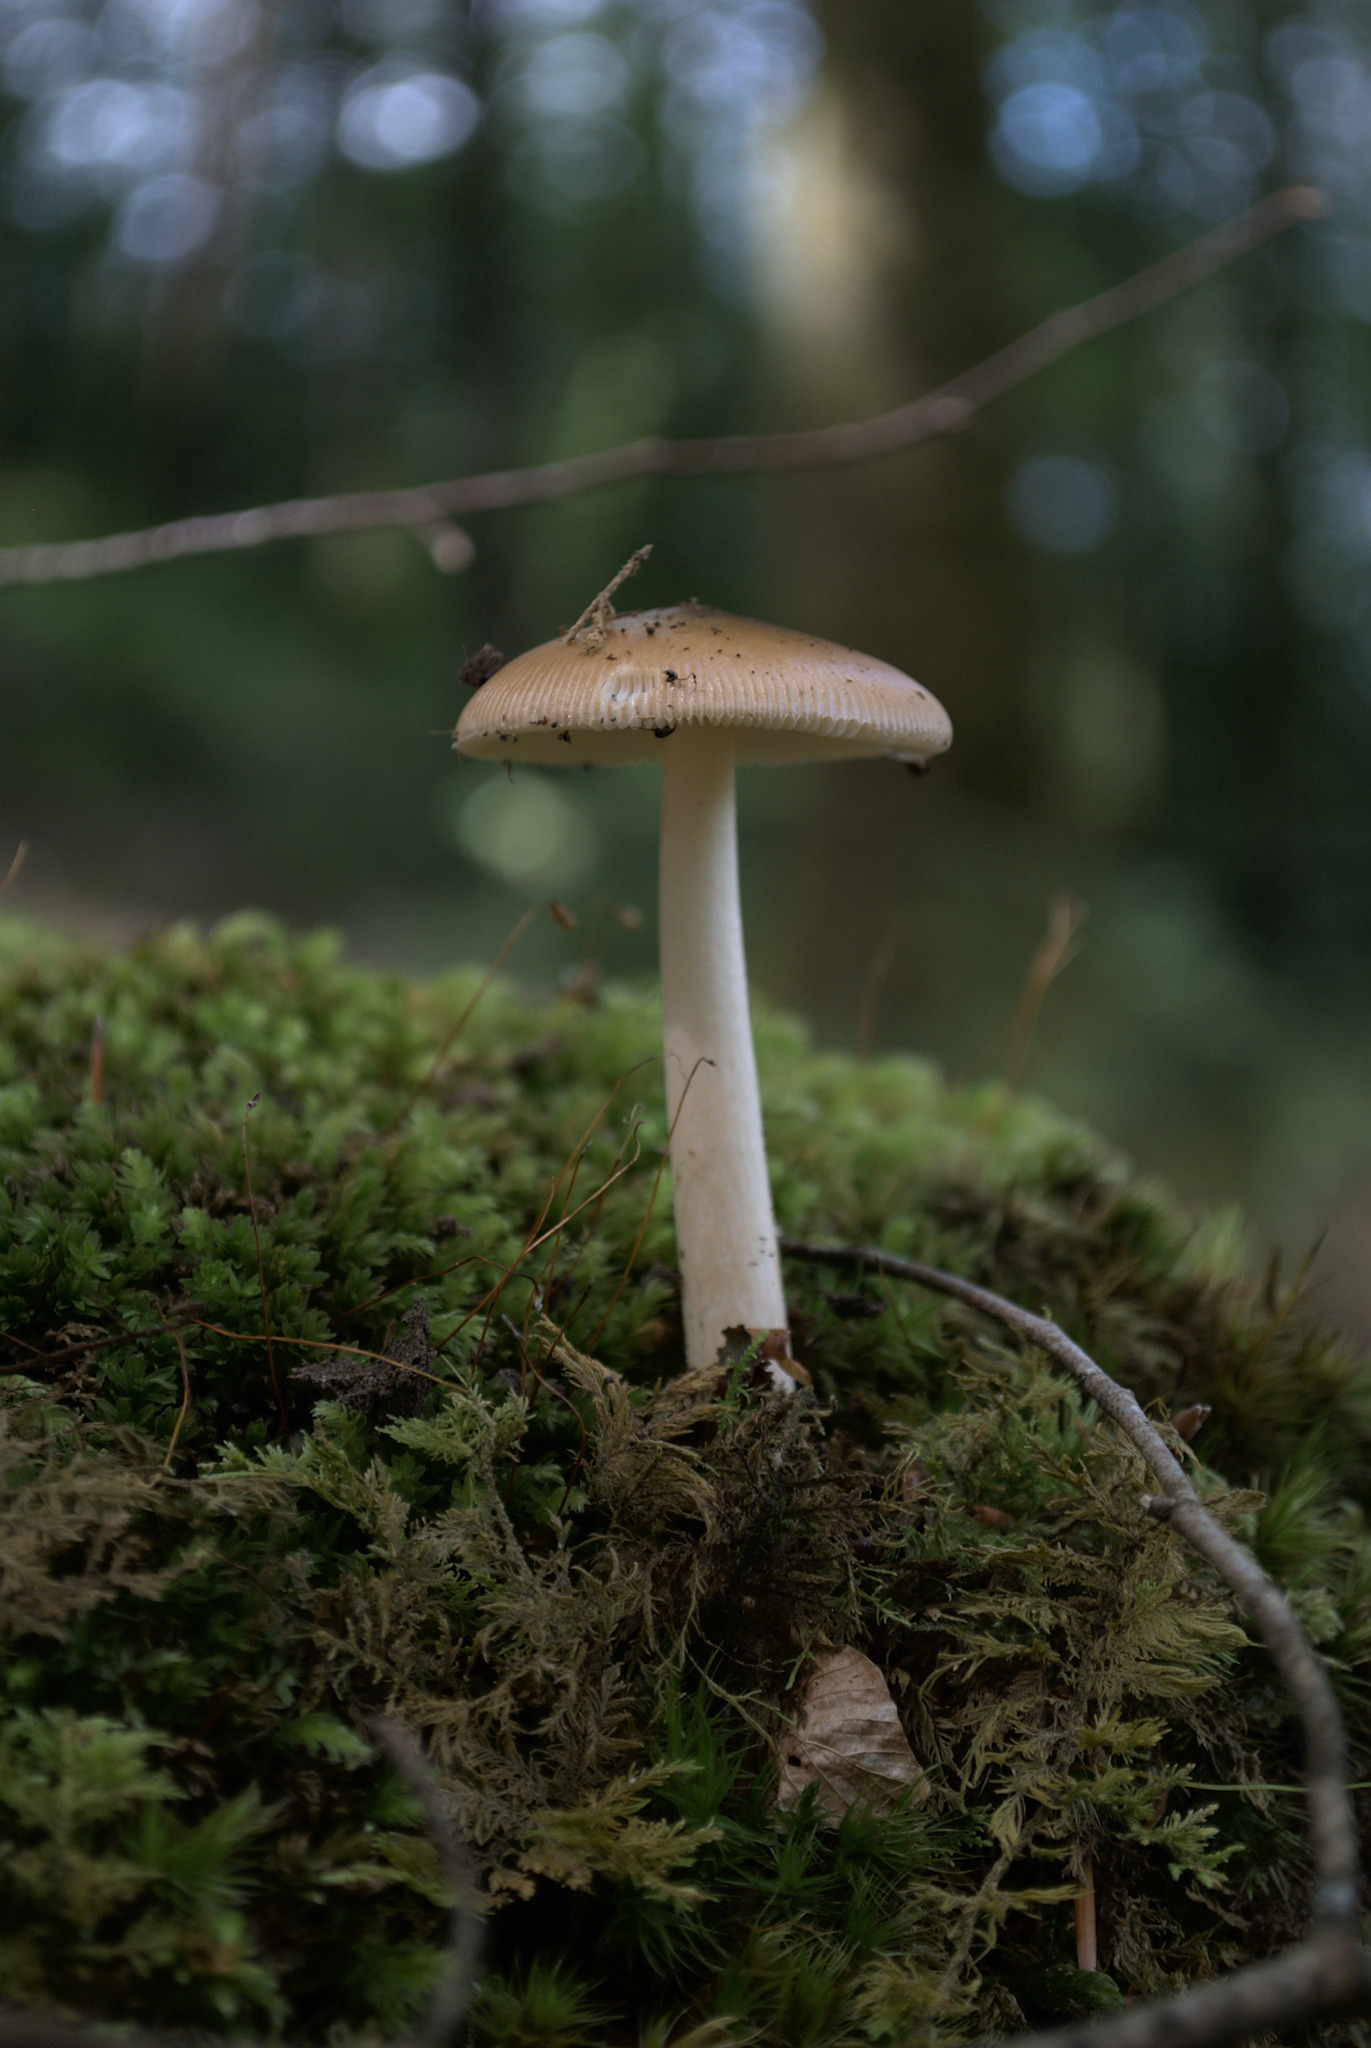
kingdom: Fungi
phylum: Basidiomycota
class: Agaricomycetes
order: Agaricales
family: Amanitaceae
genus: Amanita
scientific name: Amanita fulva
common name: Tawny grisette
